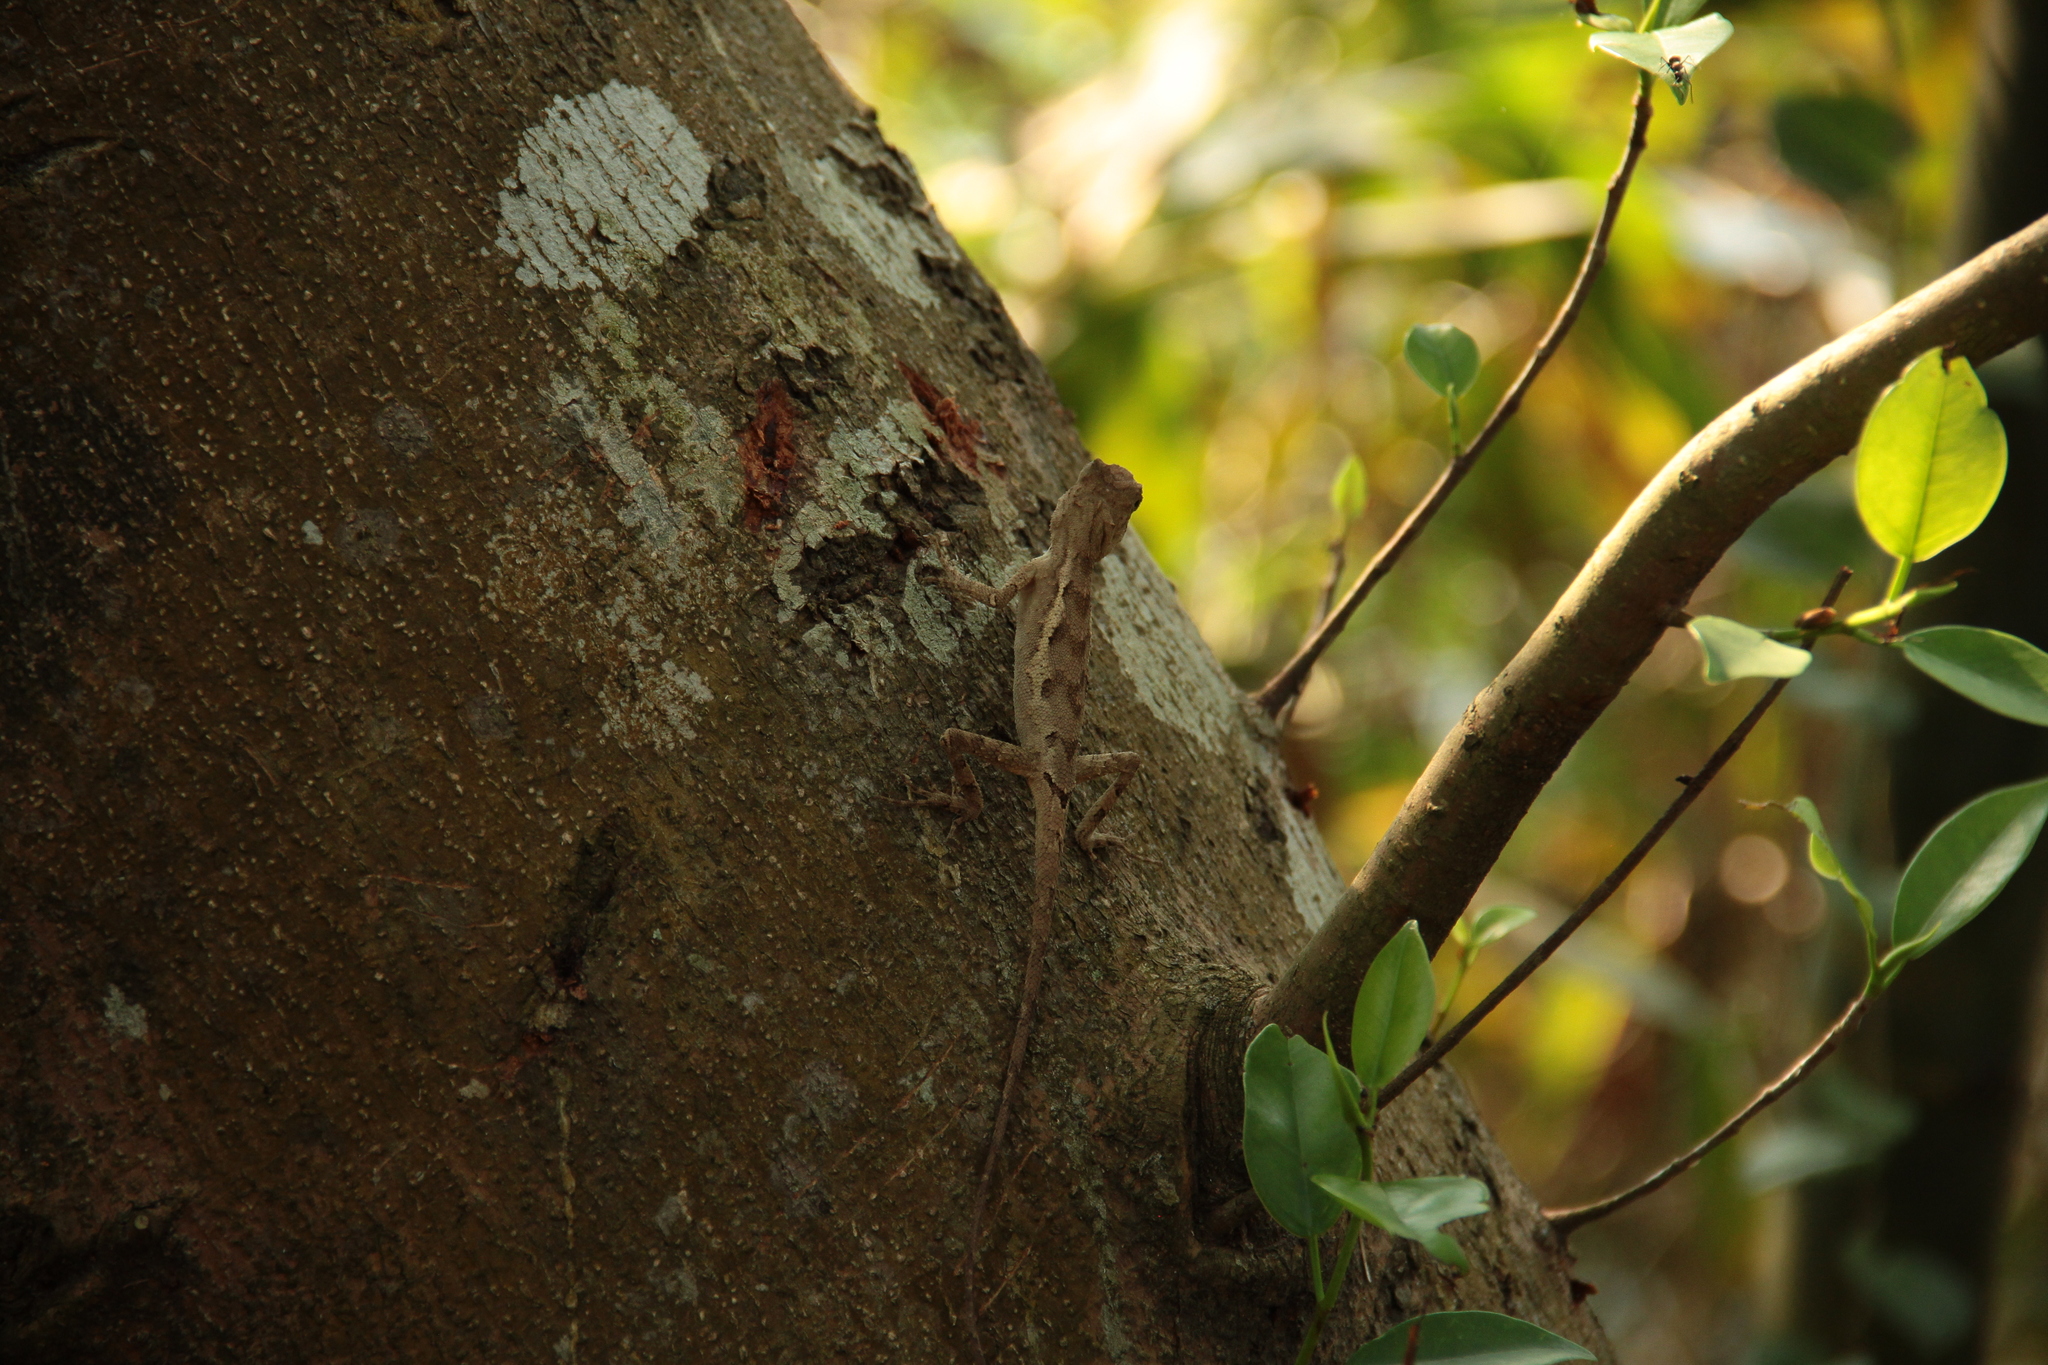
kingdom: Animalia
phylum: Chordata
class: Squamata
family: Agamidae
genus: Diploderma
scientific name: Diploderma swinhonis
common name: Taiwan japalure
